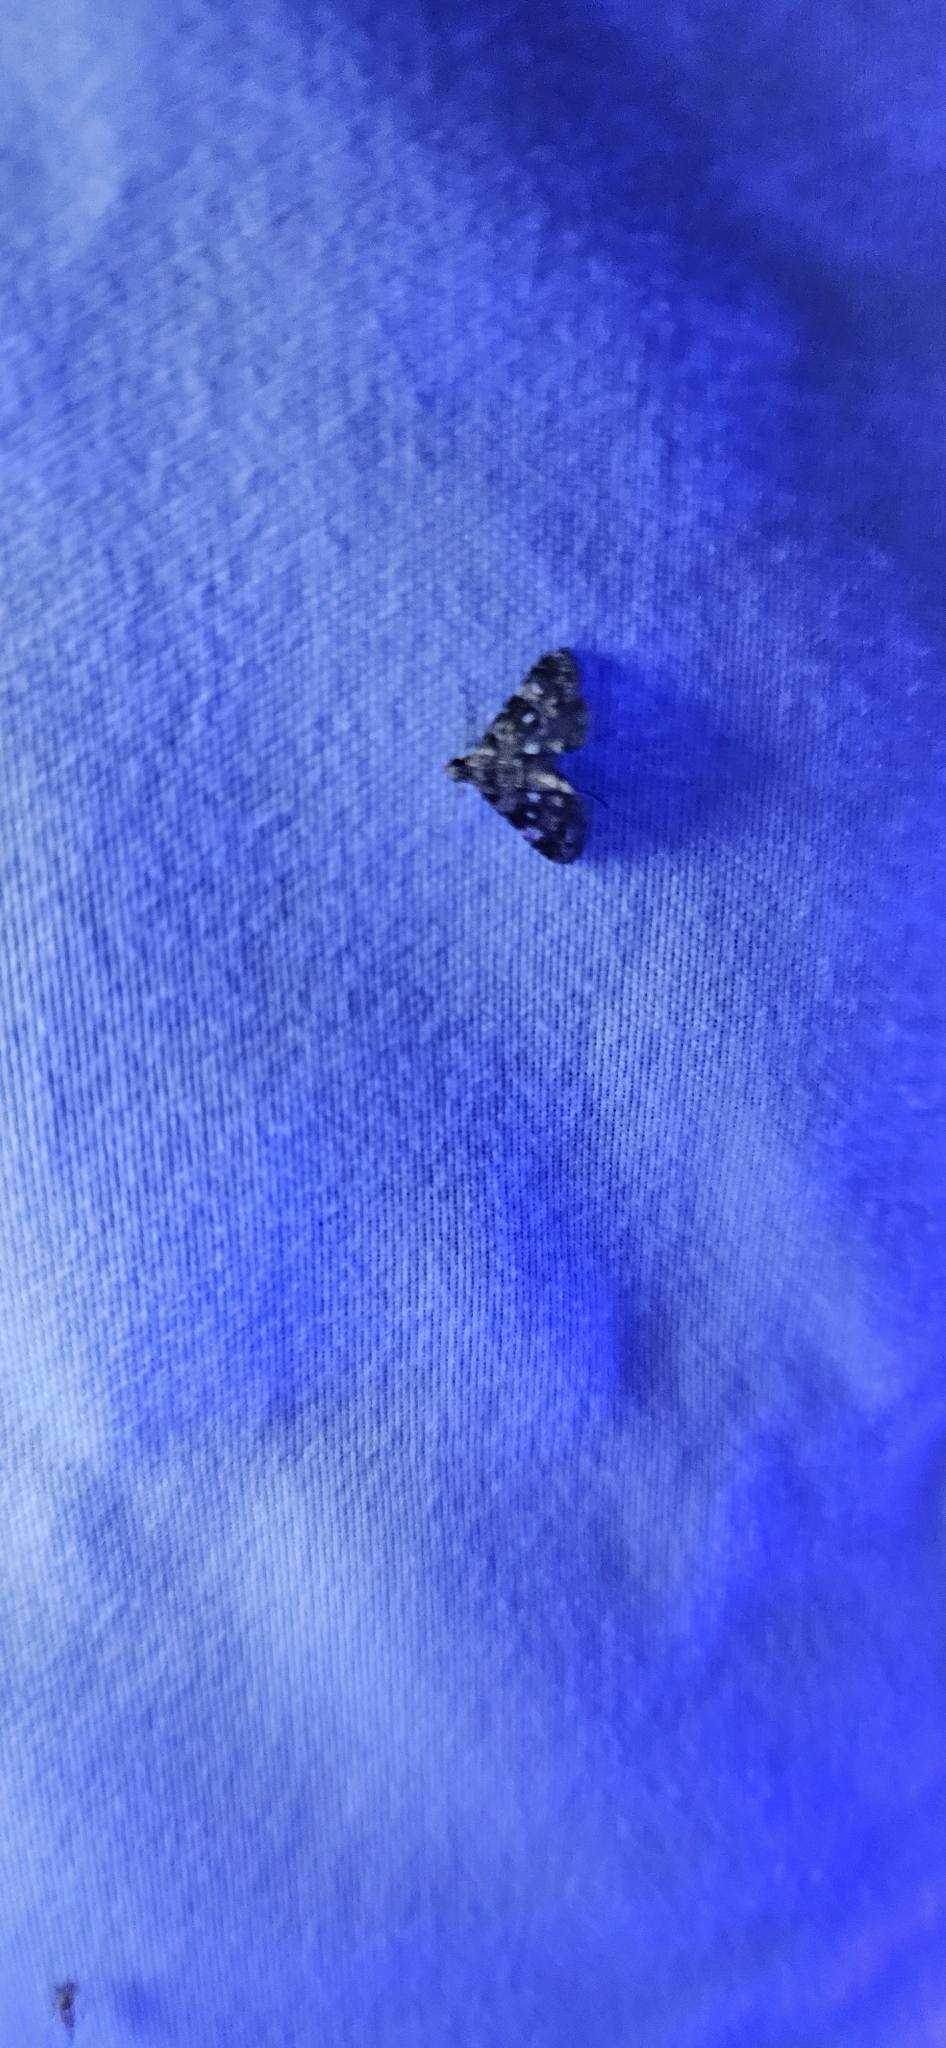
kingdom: Animalia
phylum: Arthropoda
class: Insecta
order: Lepidoptera
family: Crambidae
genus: Elophila
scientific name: Elophila obliteralis
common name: Waterlily leafcutter moth
